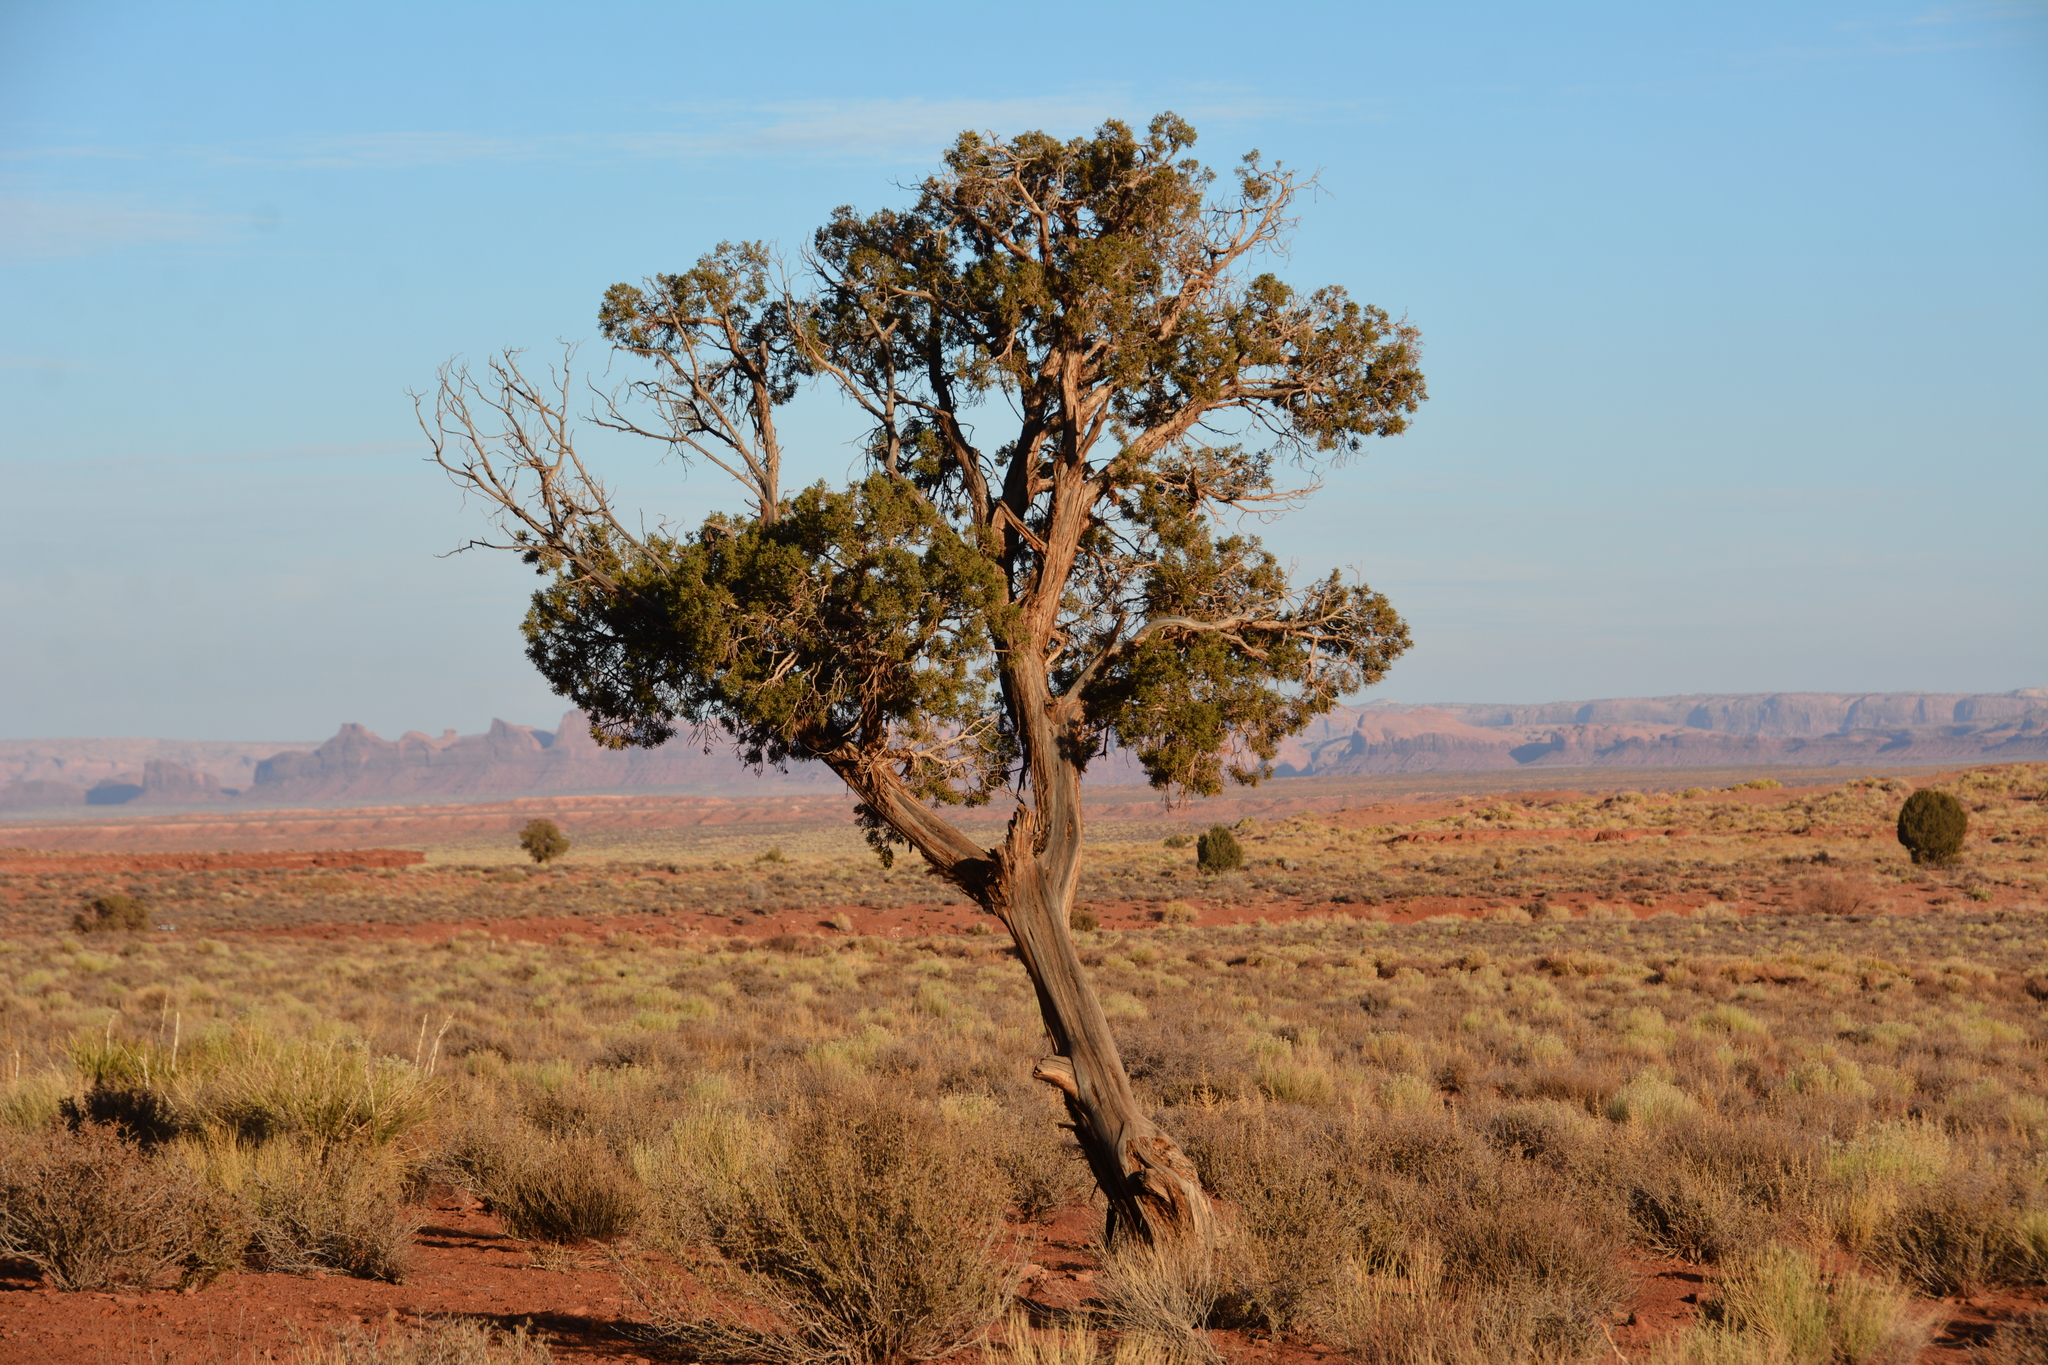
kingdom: Plantae
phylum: Tracheophyta
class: Pinopsida
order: Pinales
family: Cupressaceae
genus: Juniperus
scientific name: Juniperus osteosperma
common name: Utah juniper
